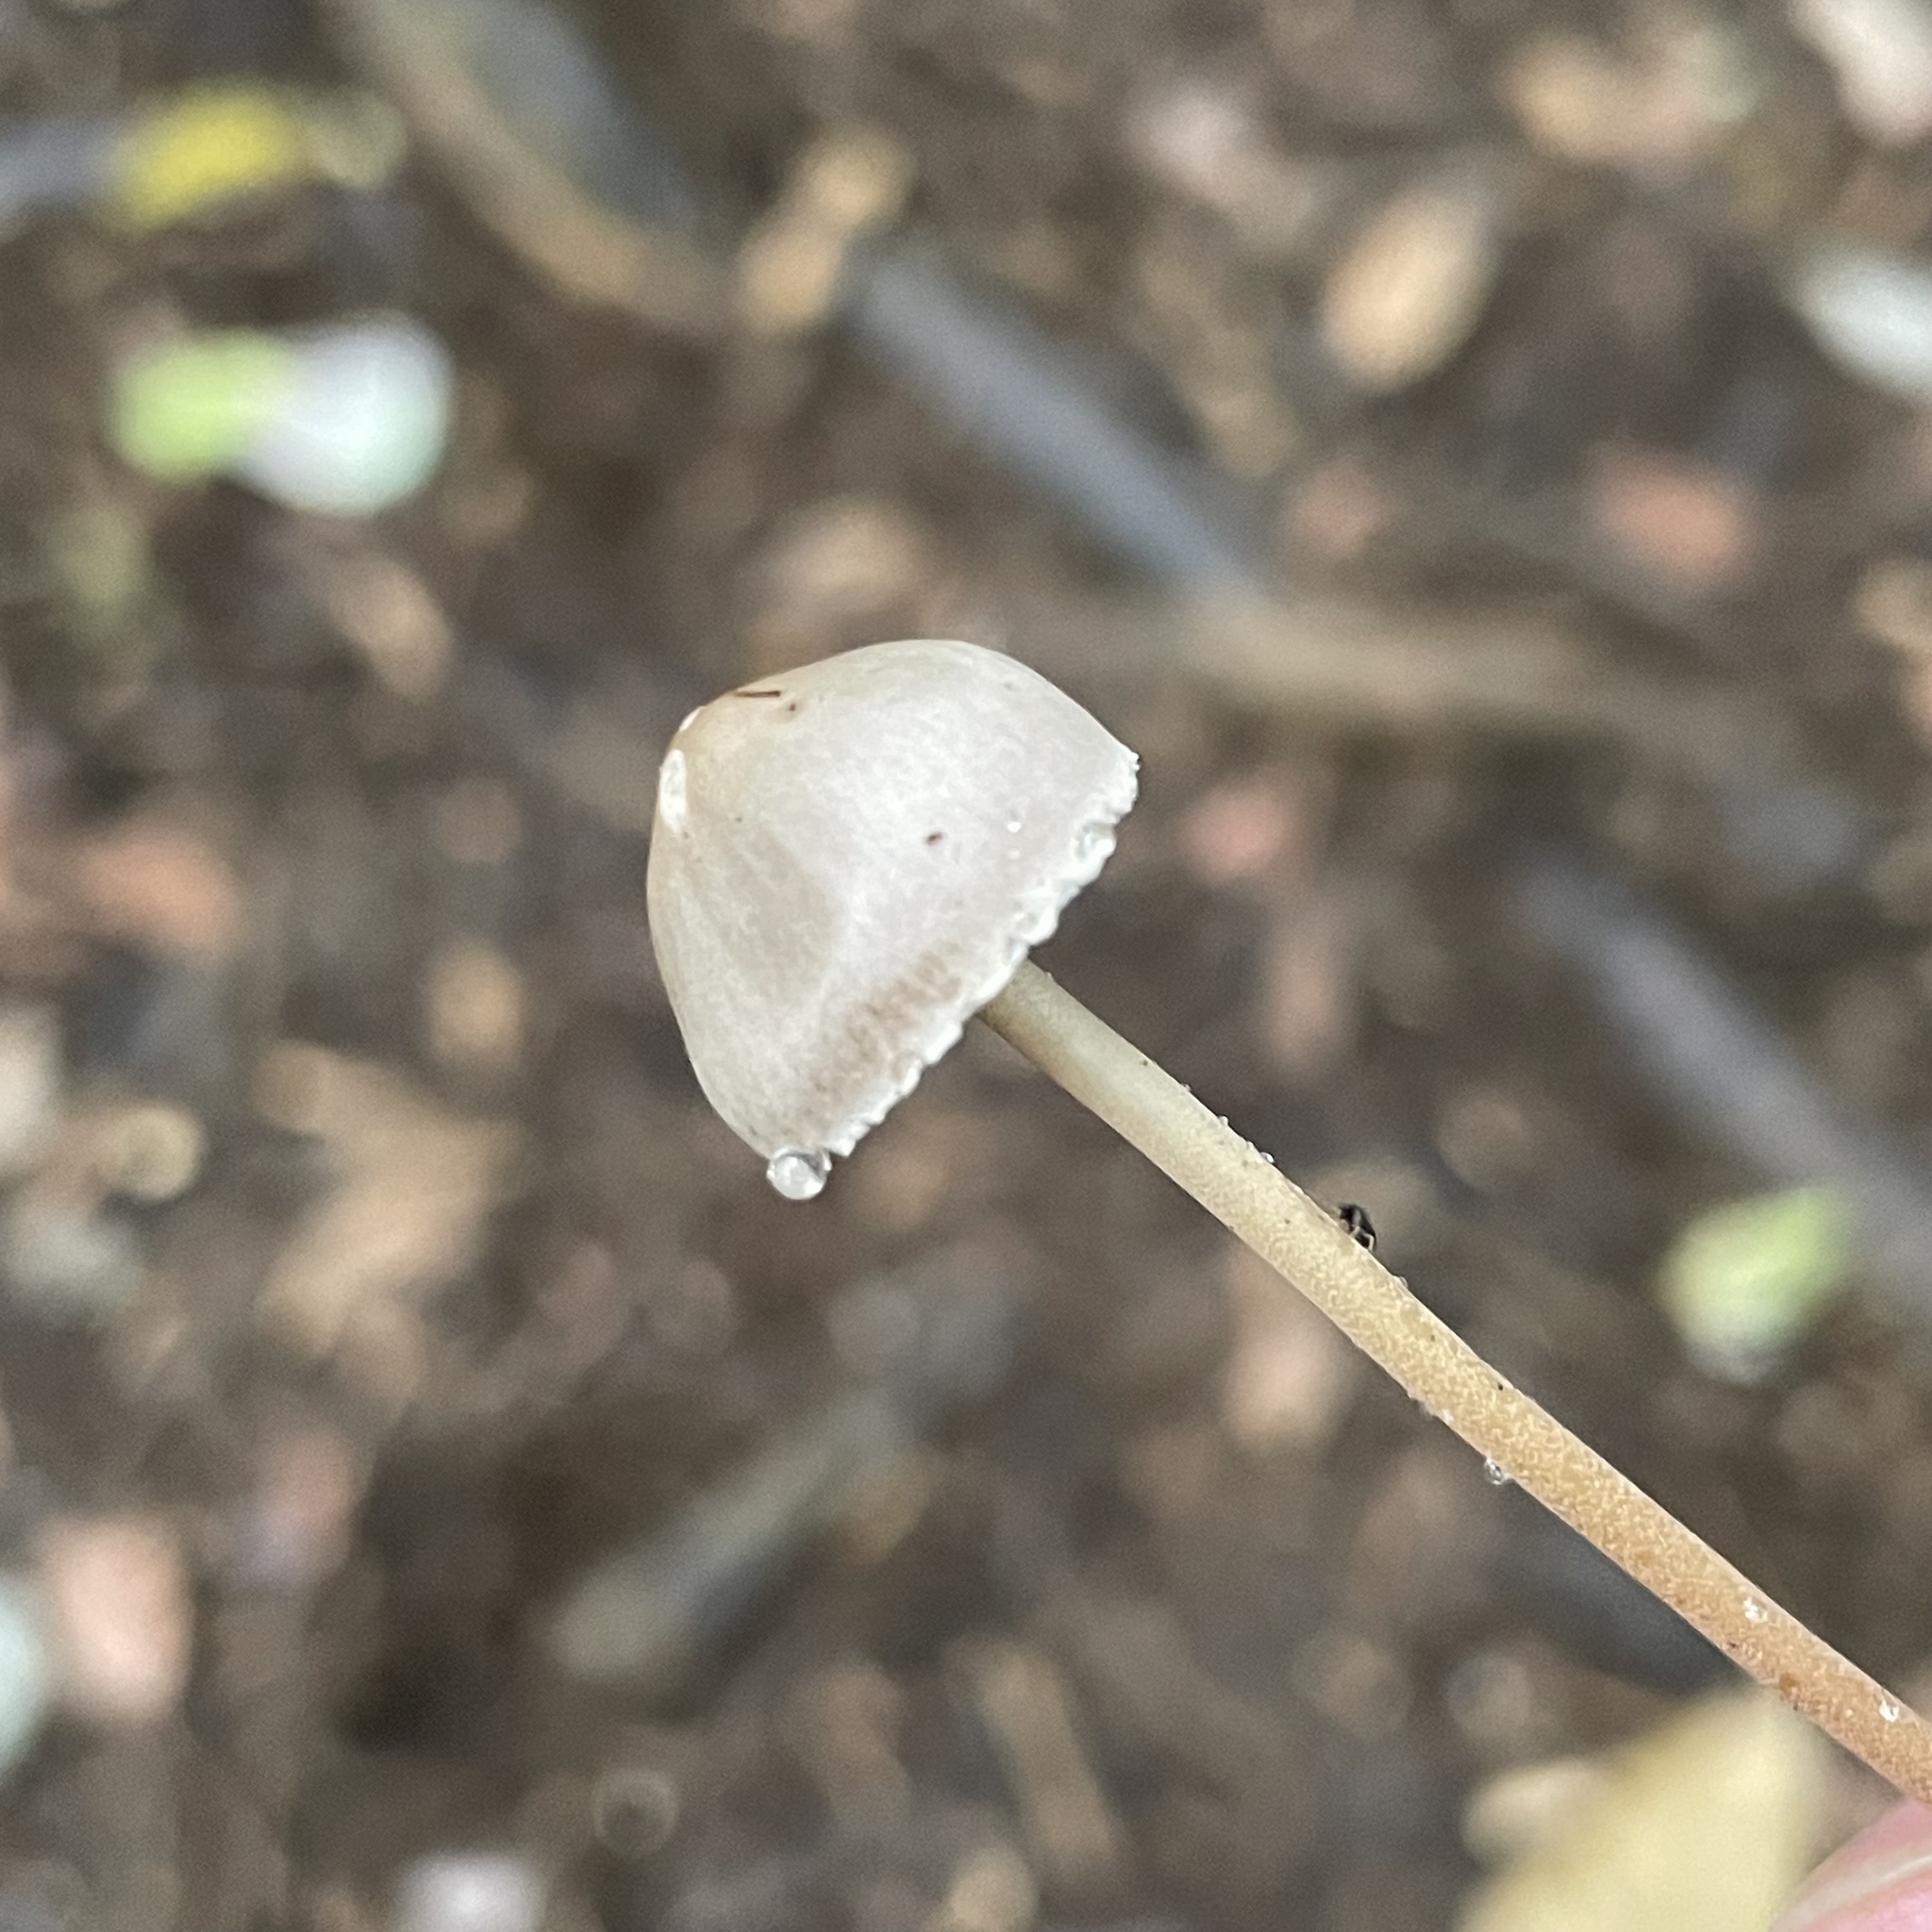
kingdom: Fungi
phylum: Basidiomycota
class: Agaricomycetes
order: Agaricales
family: Bolbitiaceae
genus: Panaeolus
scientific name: Panaeolus papilionaceus
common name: Petticoat mottlegill
